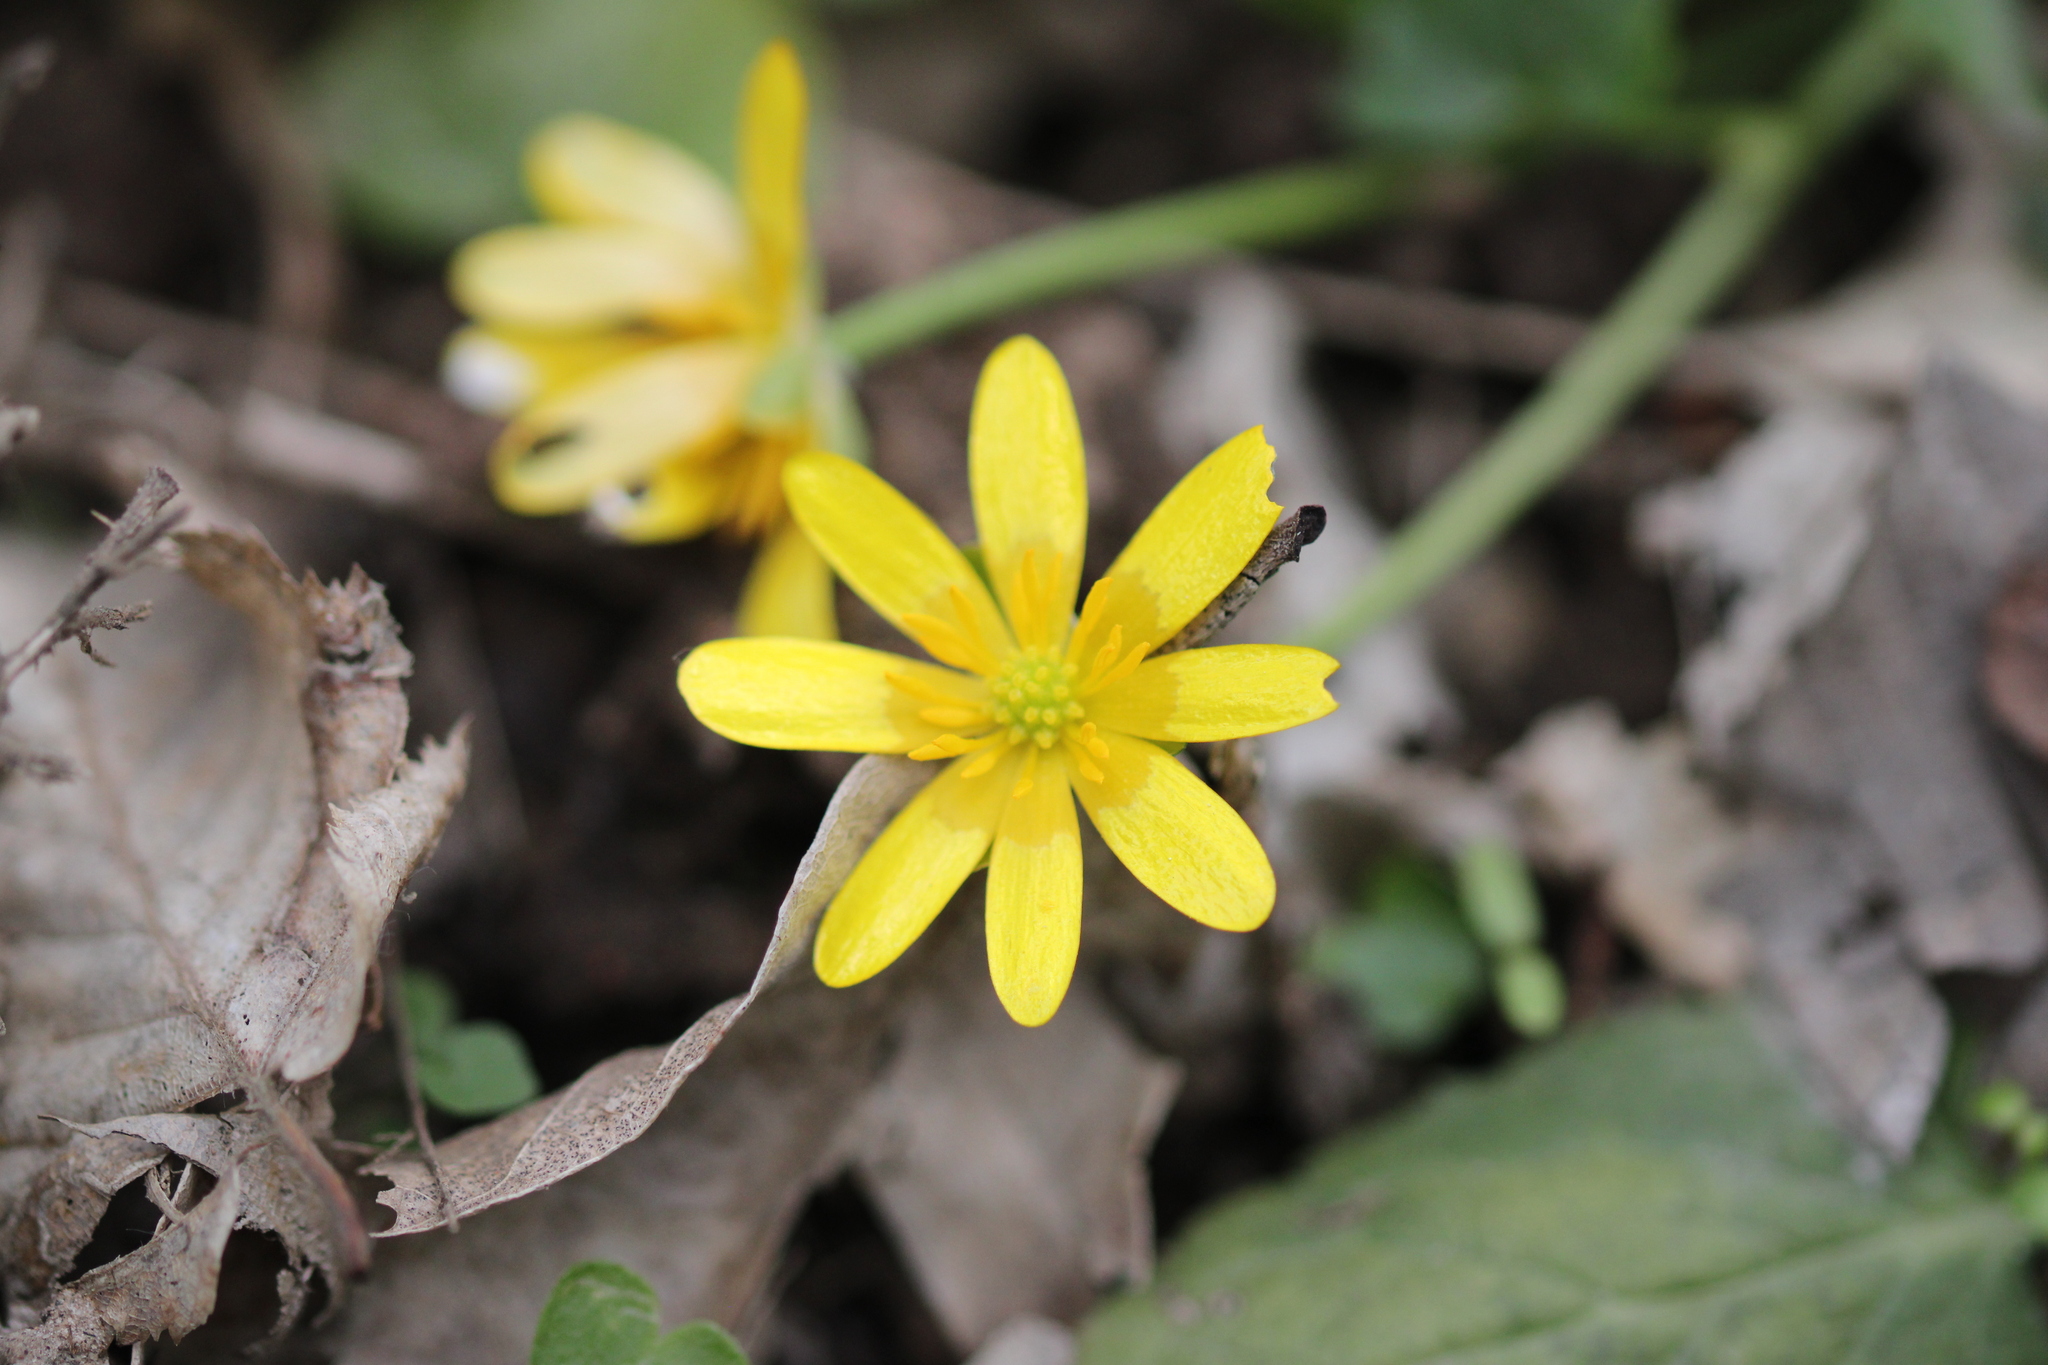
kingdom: Plantae
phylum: Tracheophyta
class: Magnoliopsida
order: Ranunculales
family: Ranunculaceae
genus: Ficaria
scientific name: Ficaria verna
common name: Lesser celandine
